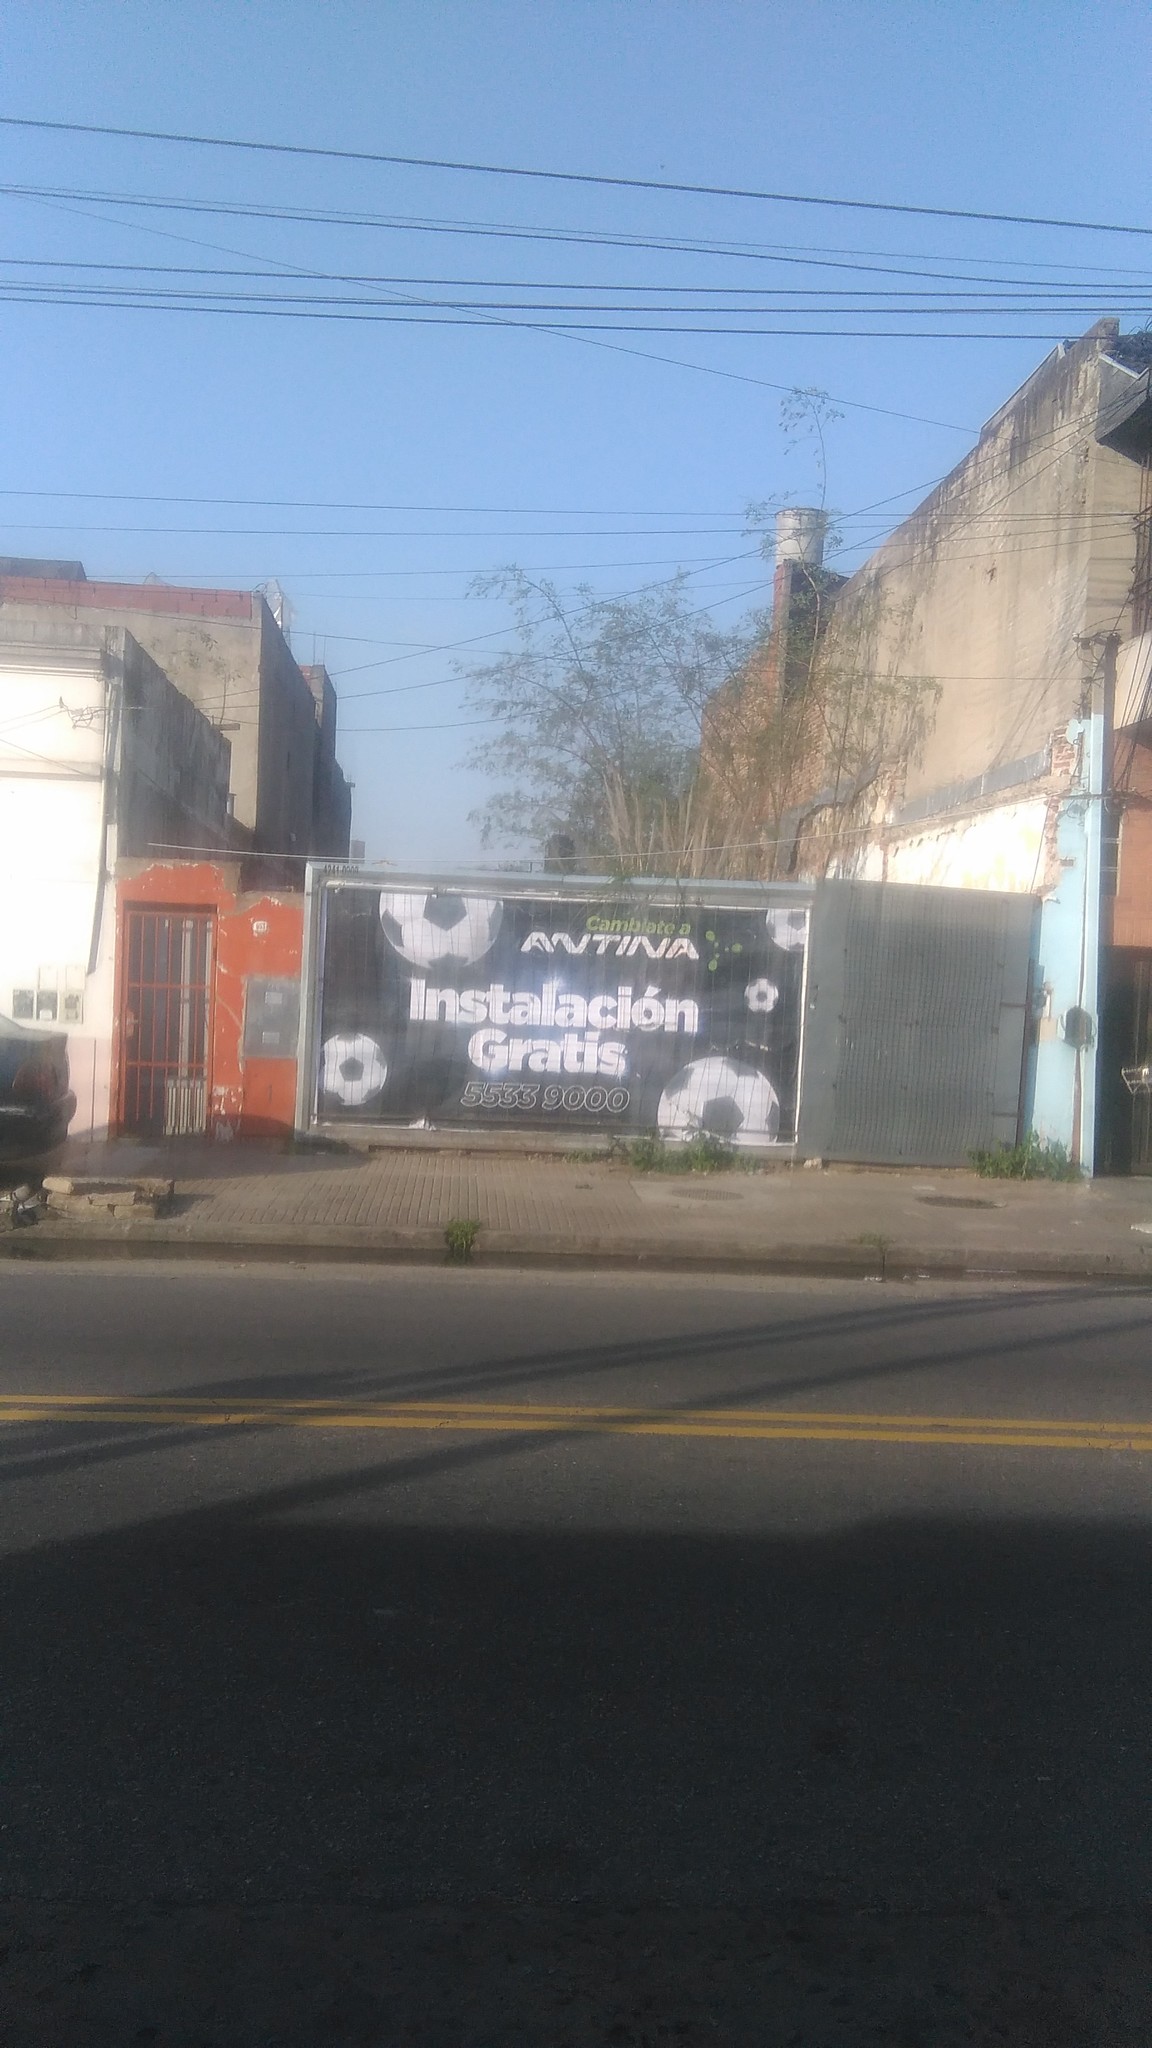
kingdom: Plantae
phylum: Tracheophyta
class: Liliopsida
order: Poales
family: Poaceae
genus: Cortaderia
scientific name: Cortaderia selloana
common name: Uruguayan pampas grass
